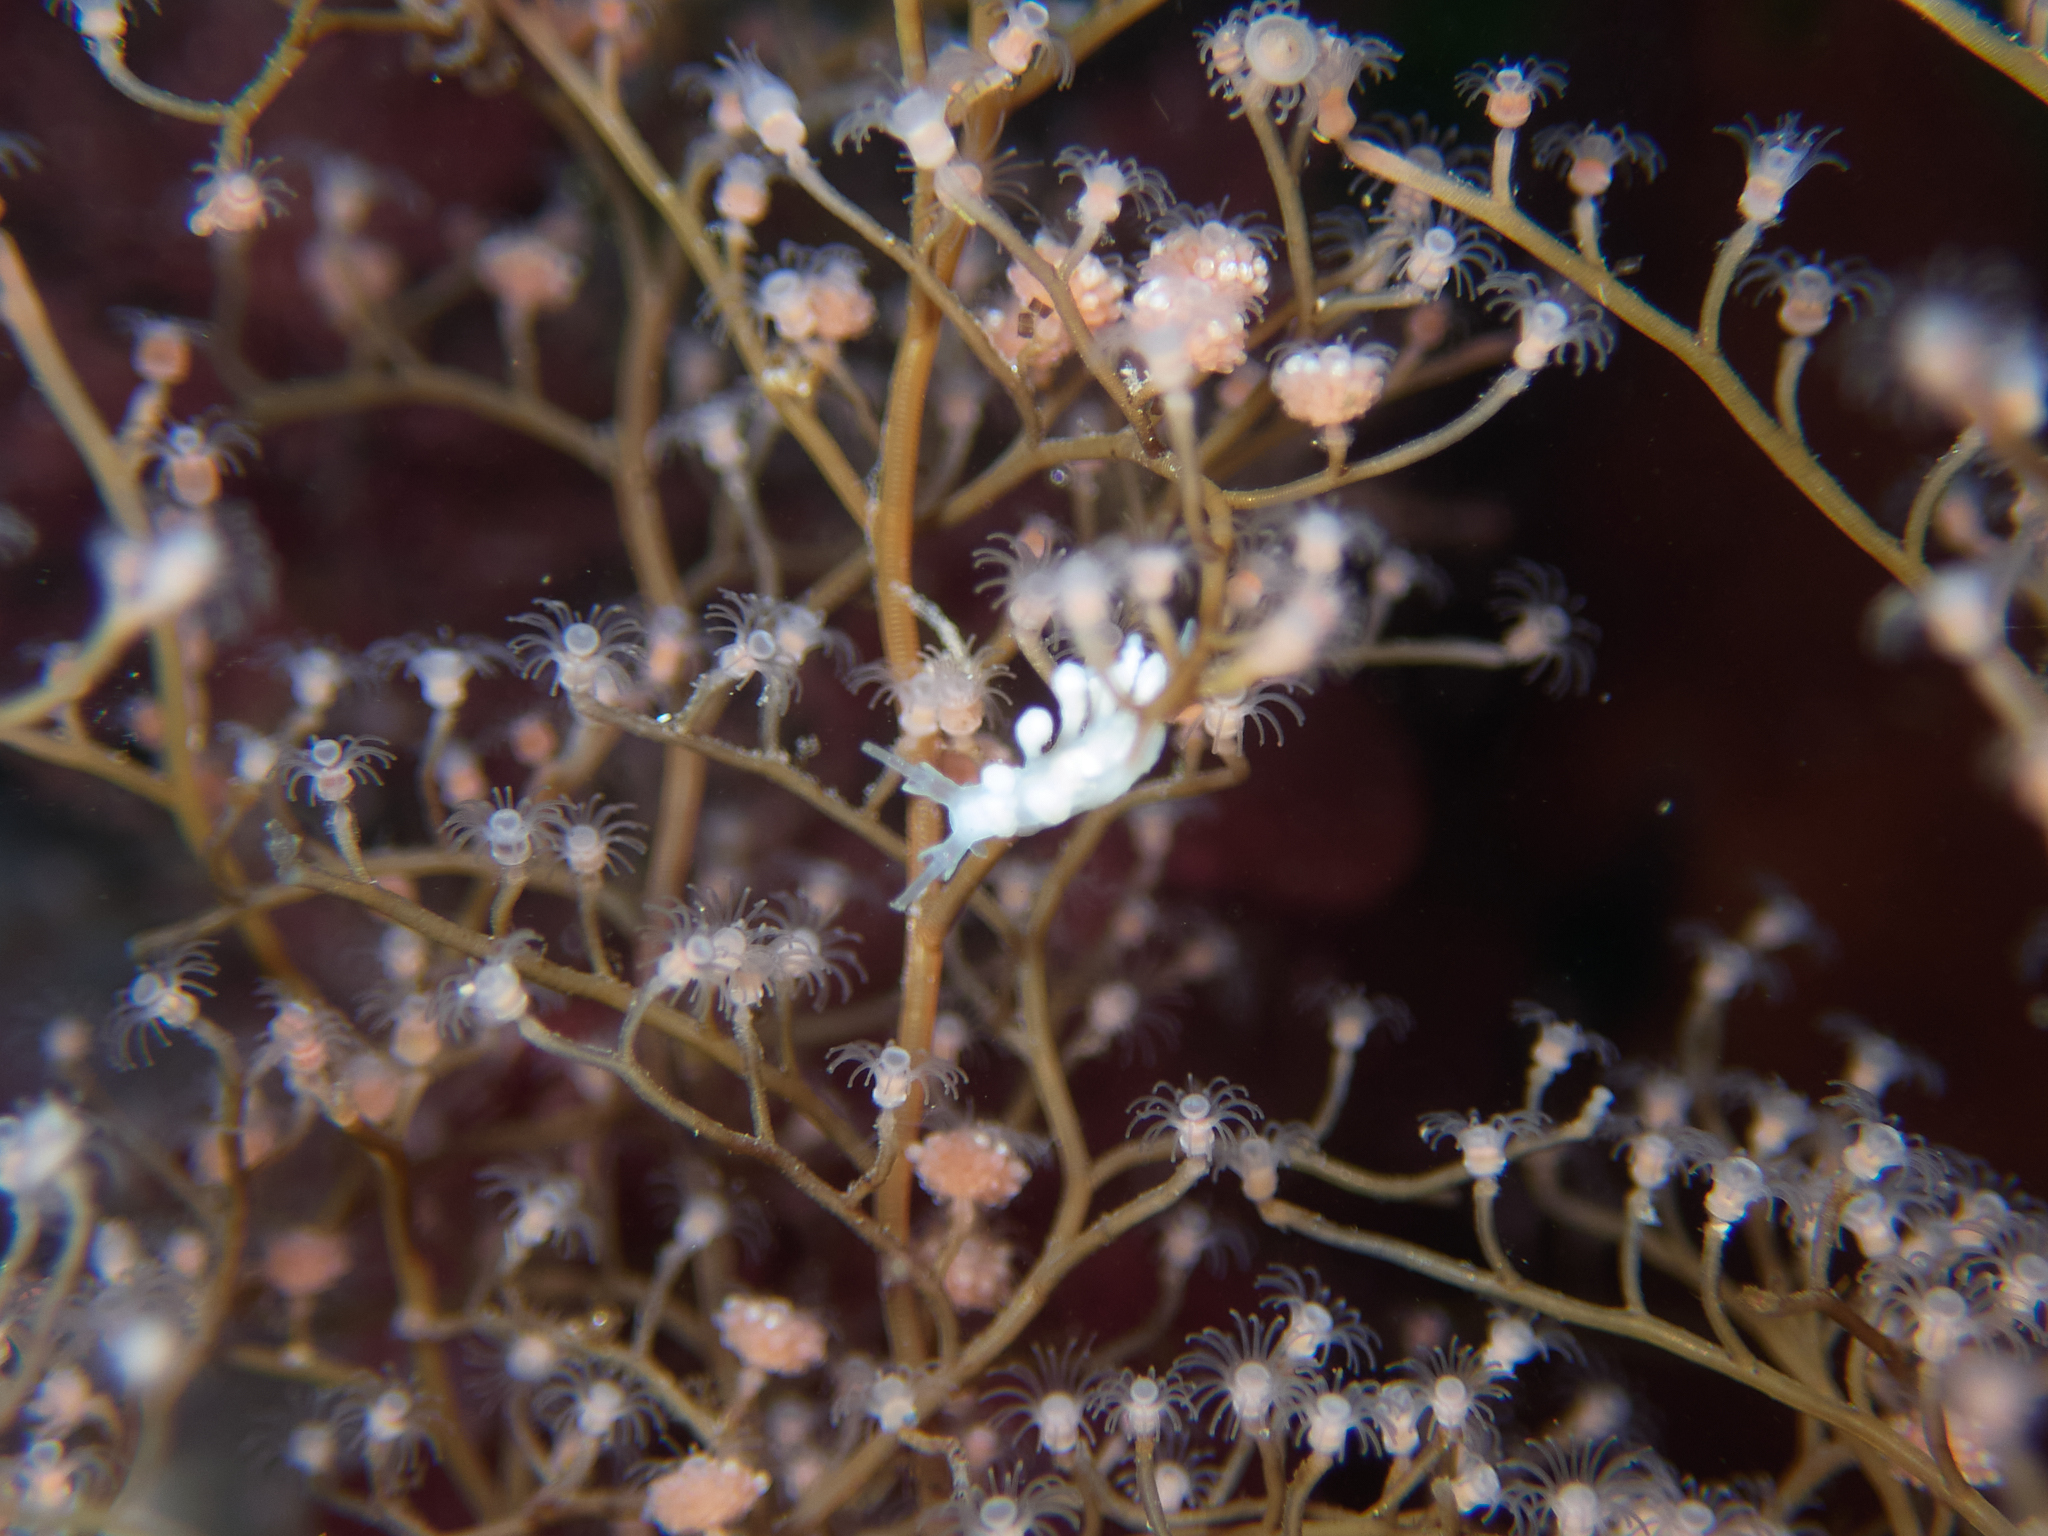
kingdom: Animalia
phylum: Mollusca
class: Gastropoda
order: Nudibranchia
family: Dotidae
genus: Doto
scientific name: Doto amyra
